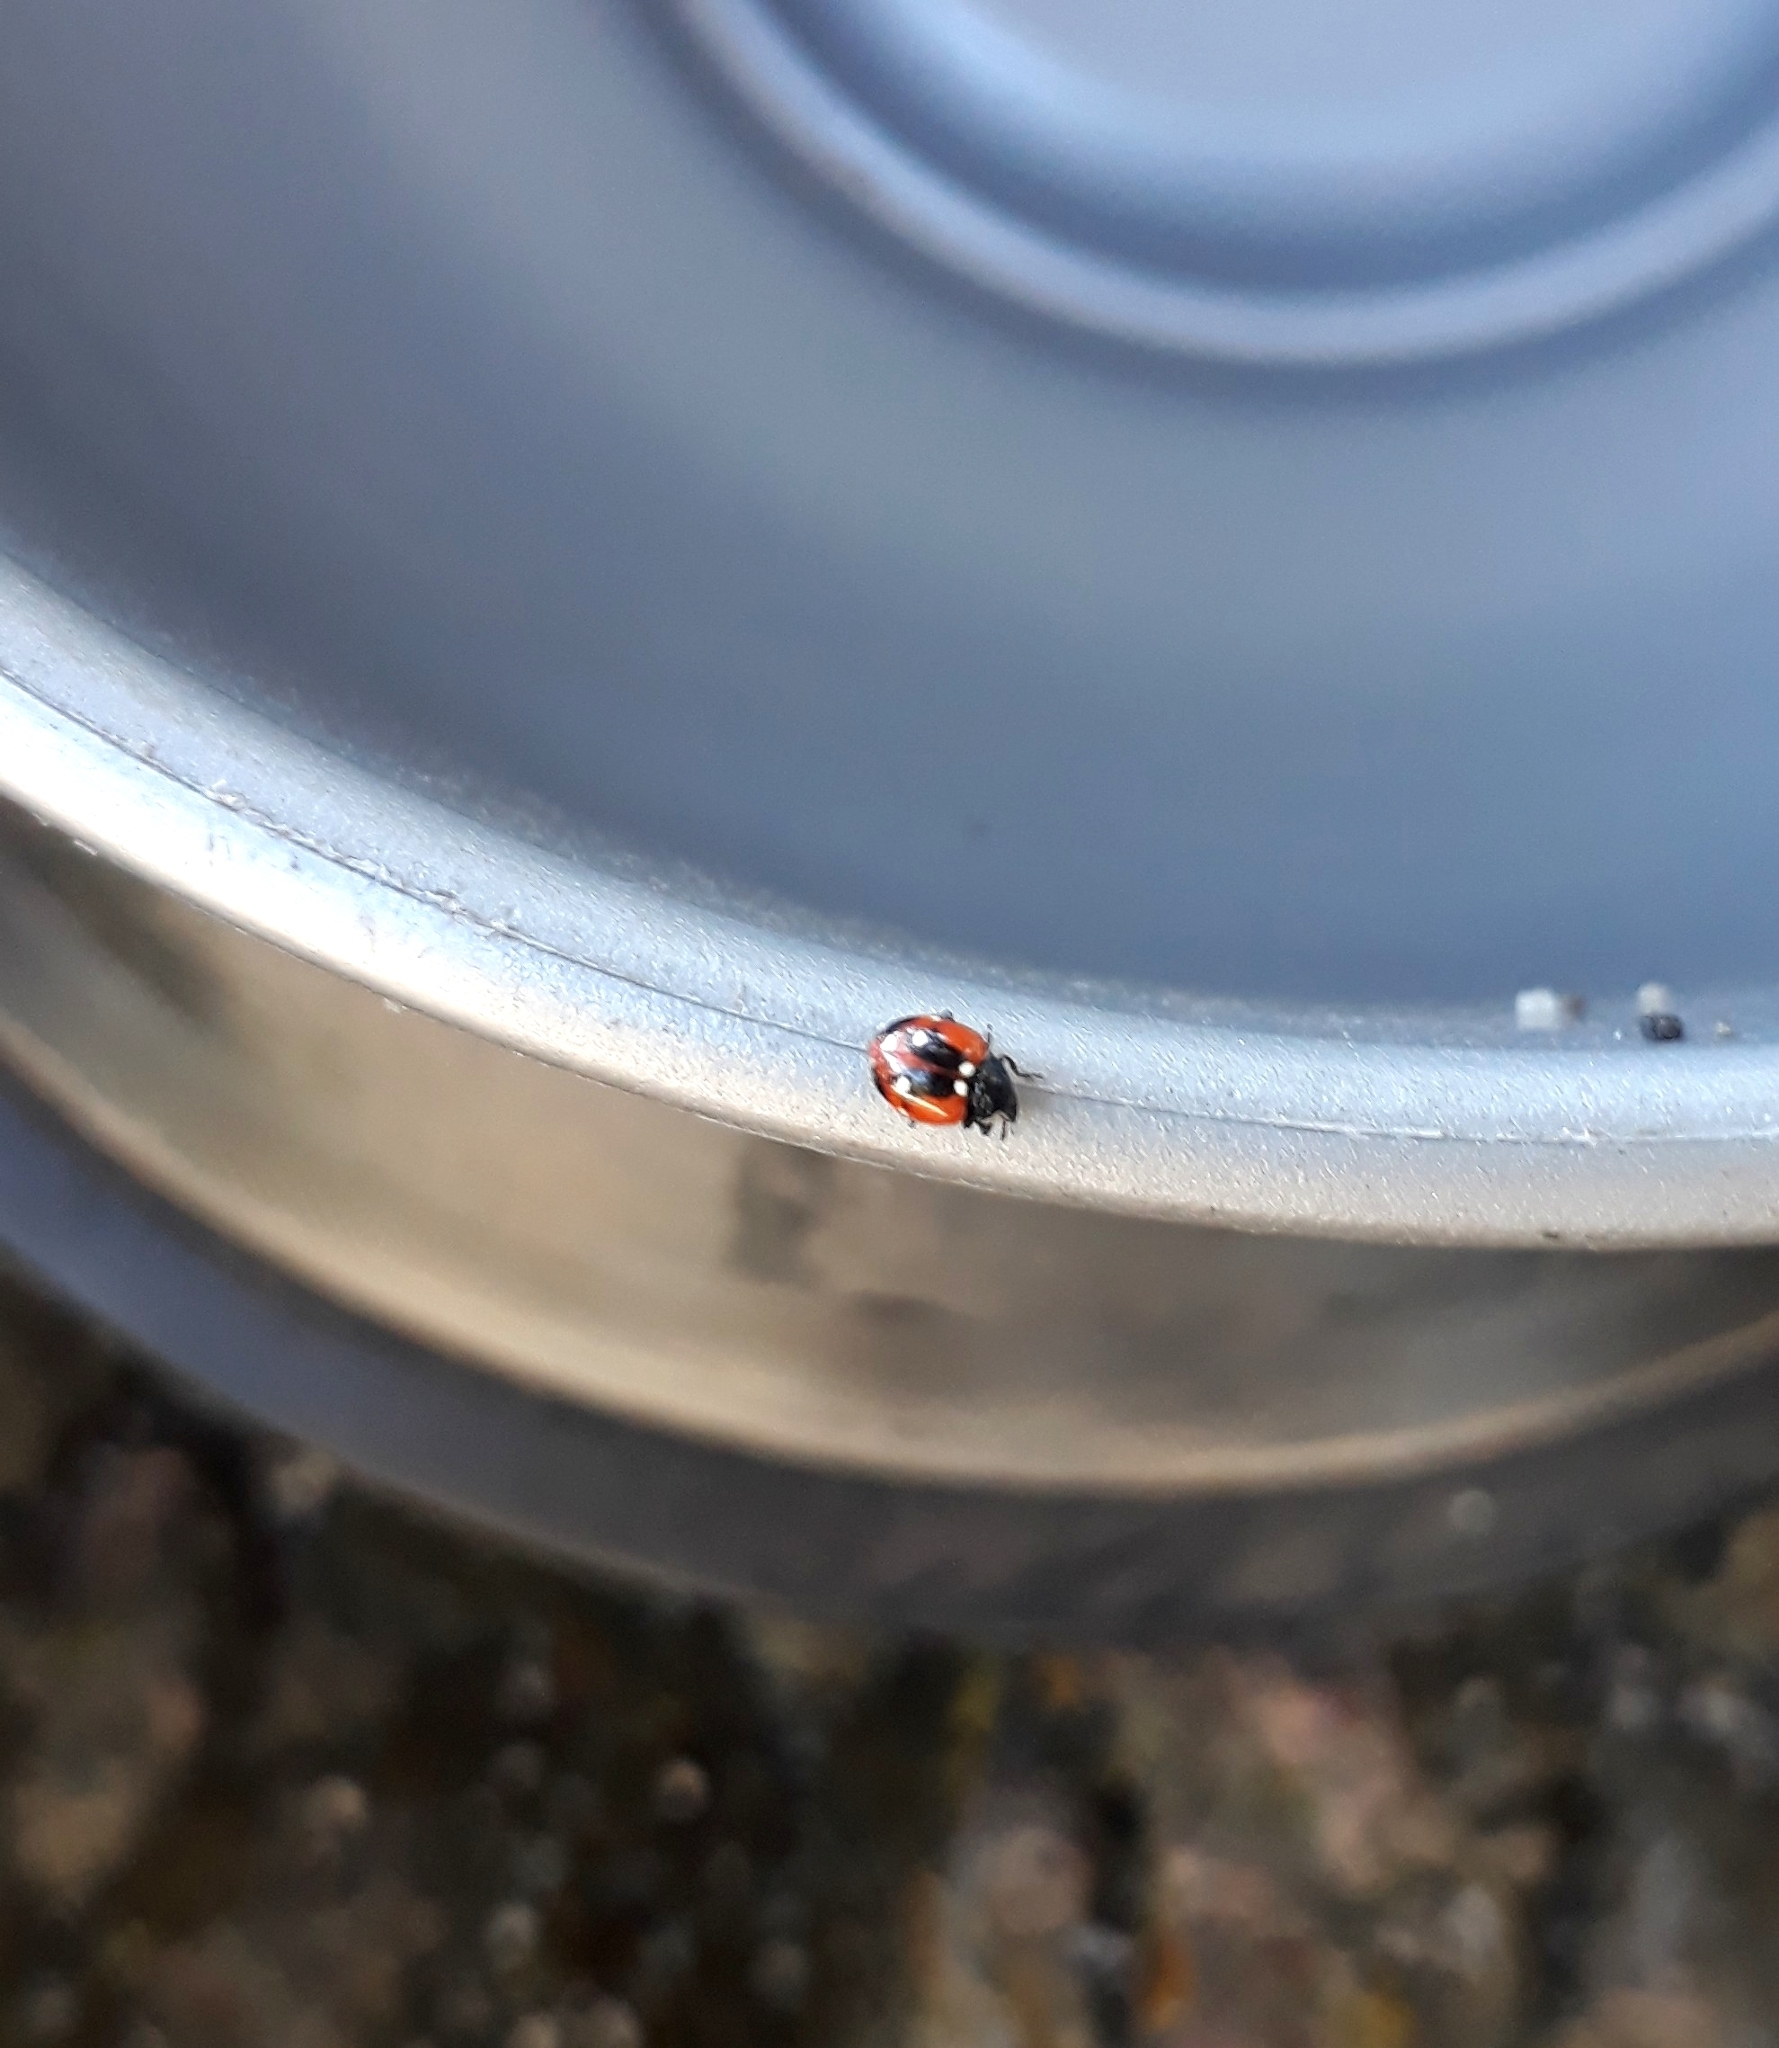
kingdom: Animalia
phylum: Arthropoda
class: Insecta
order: Coleoptera
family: Coccinellidae
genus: Cycloneda
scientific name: Cycloneda pretiosa
